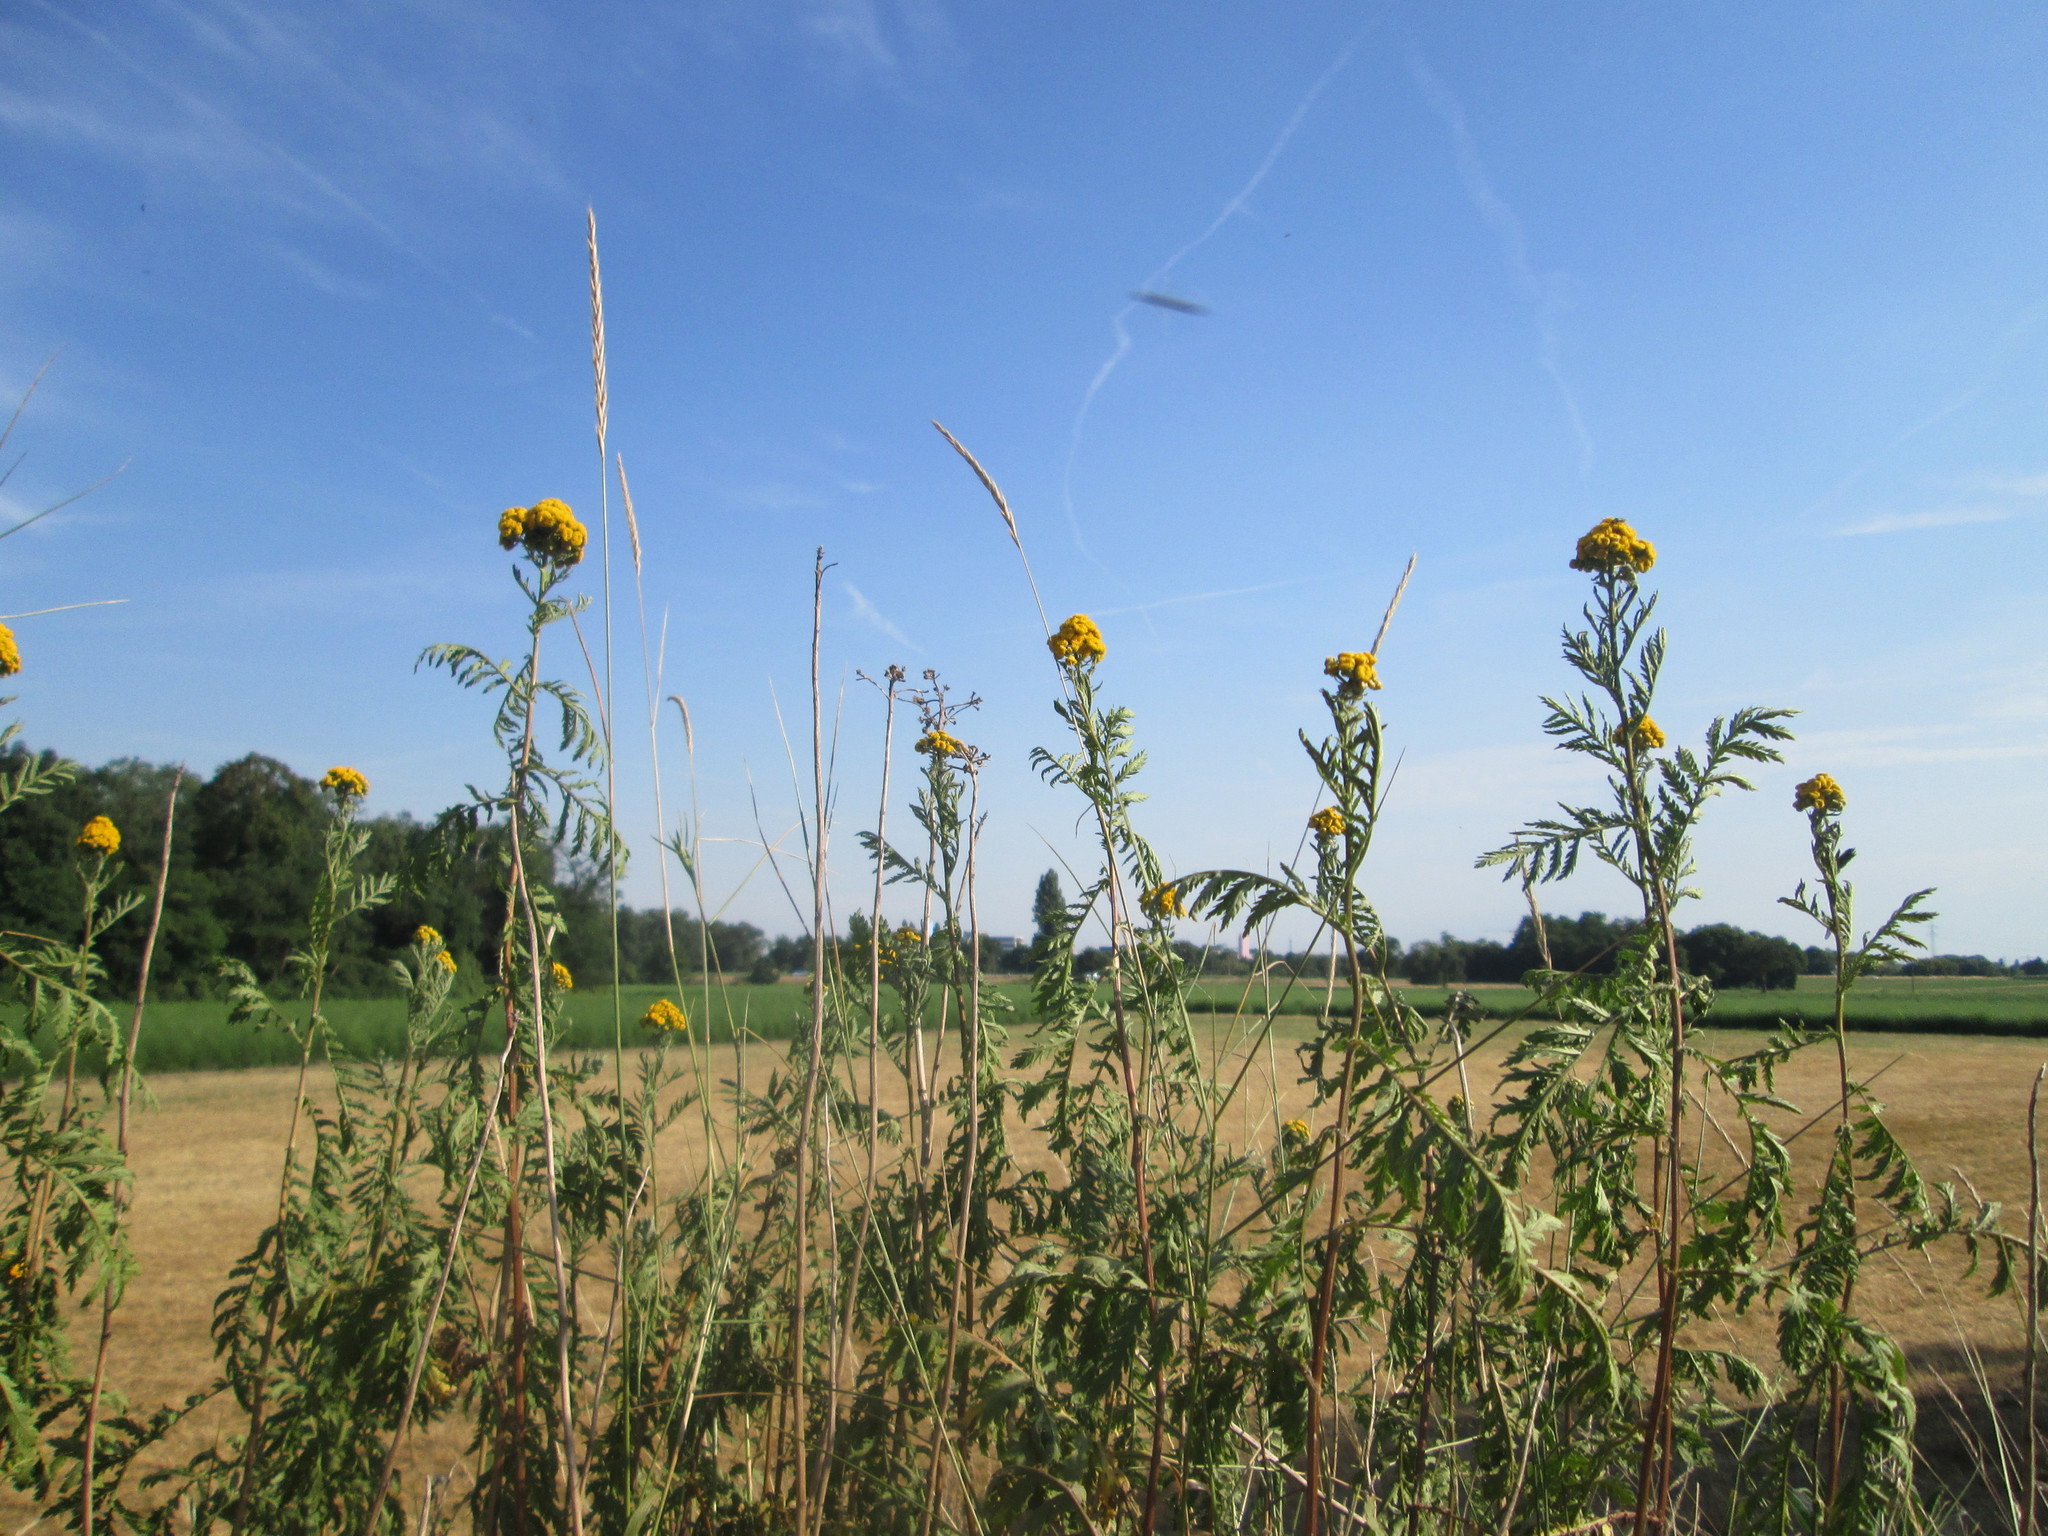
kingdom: Plantae
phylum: Tracheophyta
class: Magnoliopsida
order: Asterales
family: Asteraceae
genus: Tanacetum
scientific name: Tanacetum vulgare
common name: Common tansy
